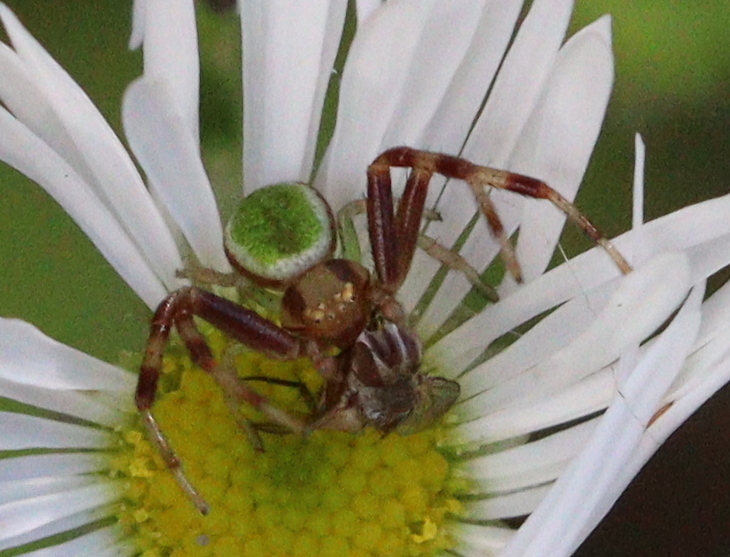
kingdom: Animalia
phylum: Arthropoda
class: Arachnida
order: Araneae
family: Thomisidae
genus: Ebrechtella
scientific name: Ebrechtella tricuspidata
